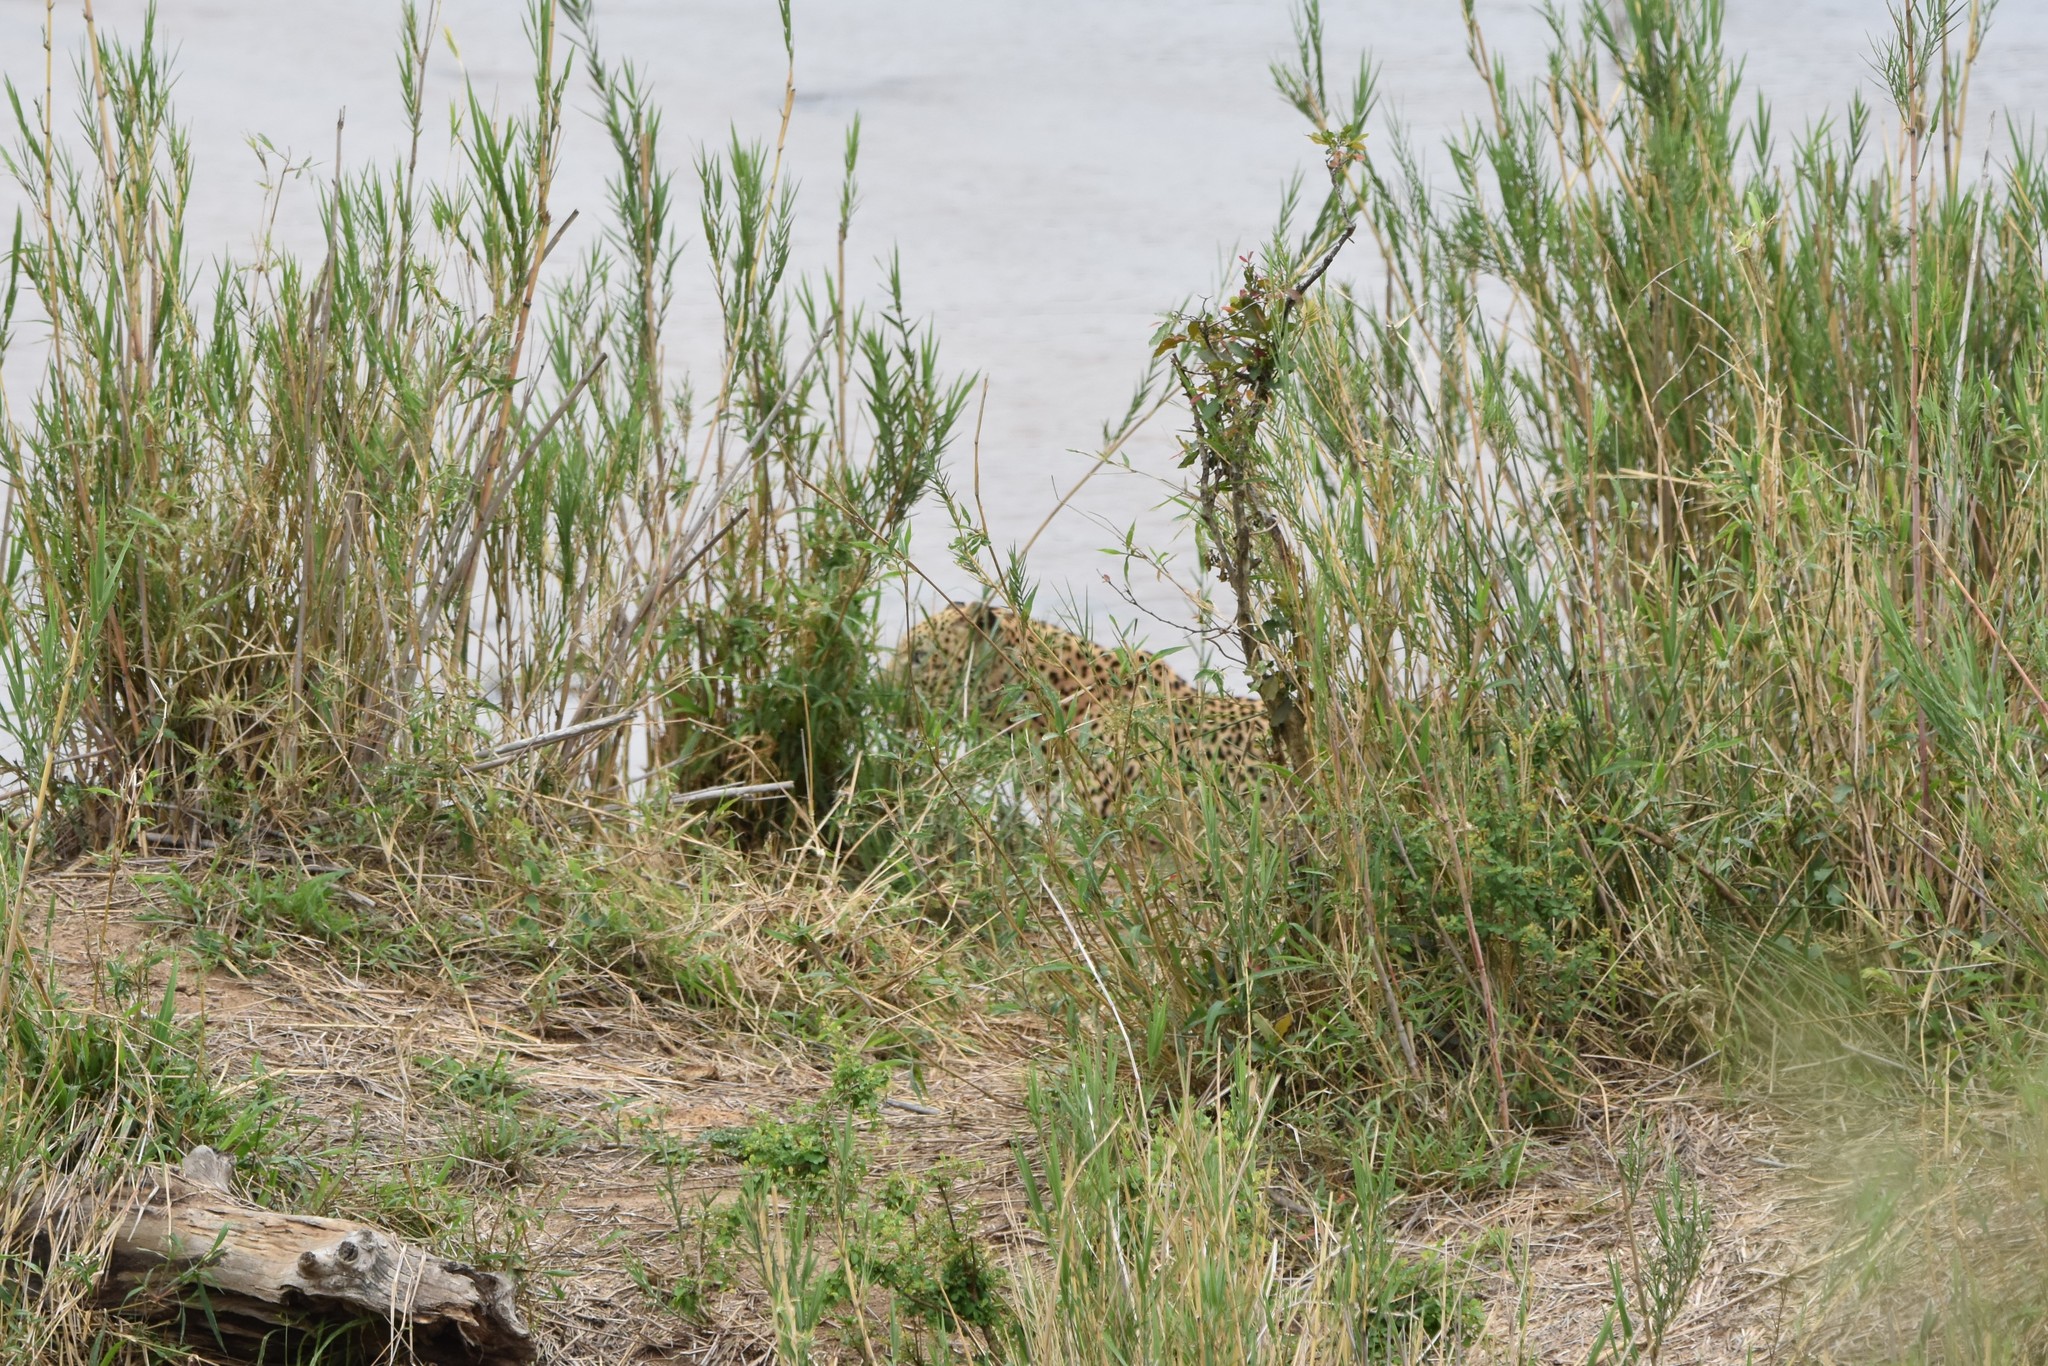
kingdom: Animalia
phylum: Chordata
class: Mammalia
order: Carnivora
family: Felidae
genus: Panthera
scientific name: Panthera pardus
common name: Leopard
